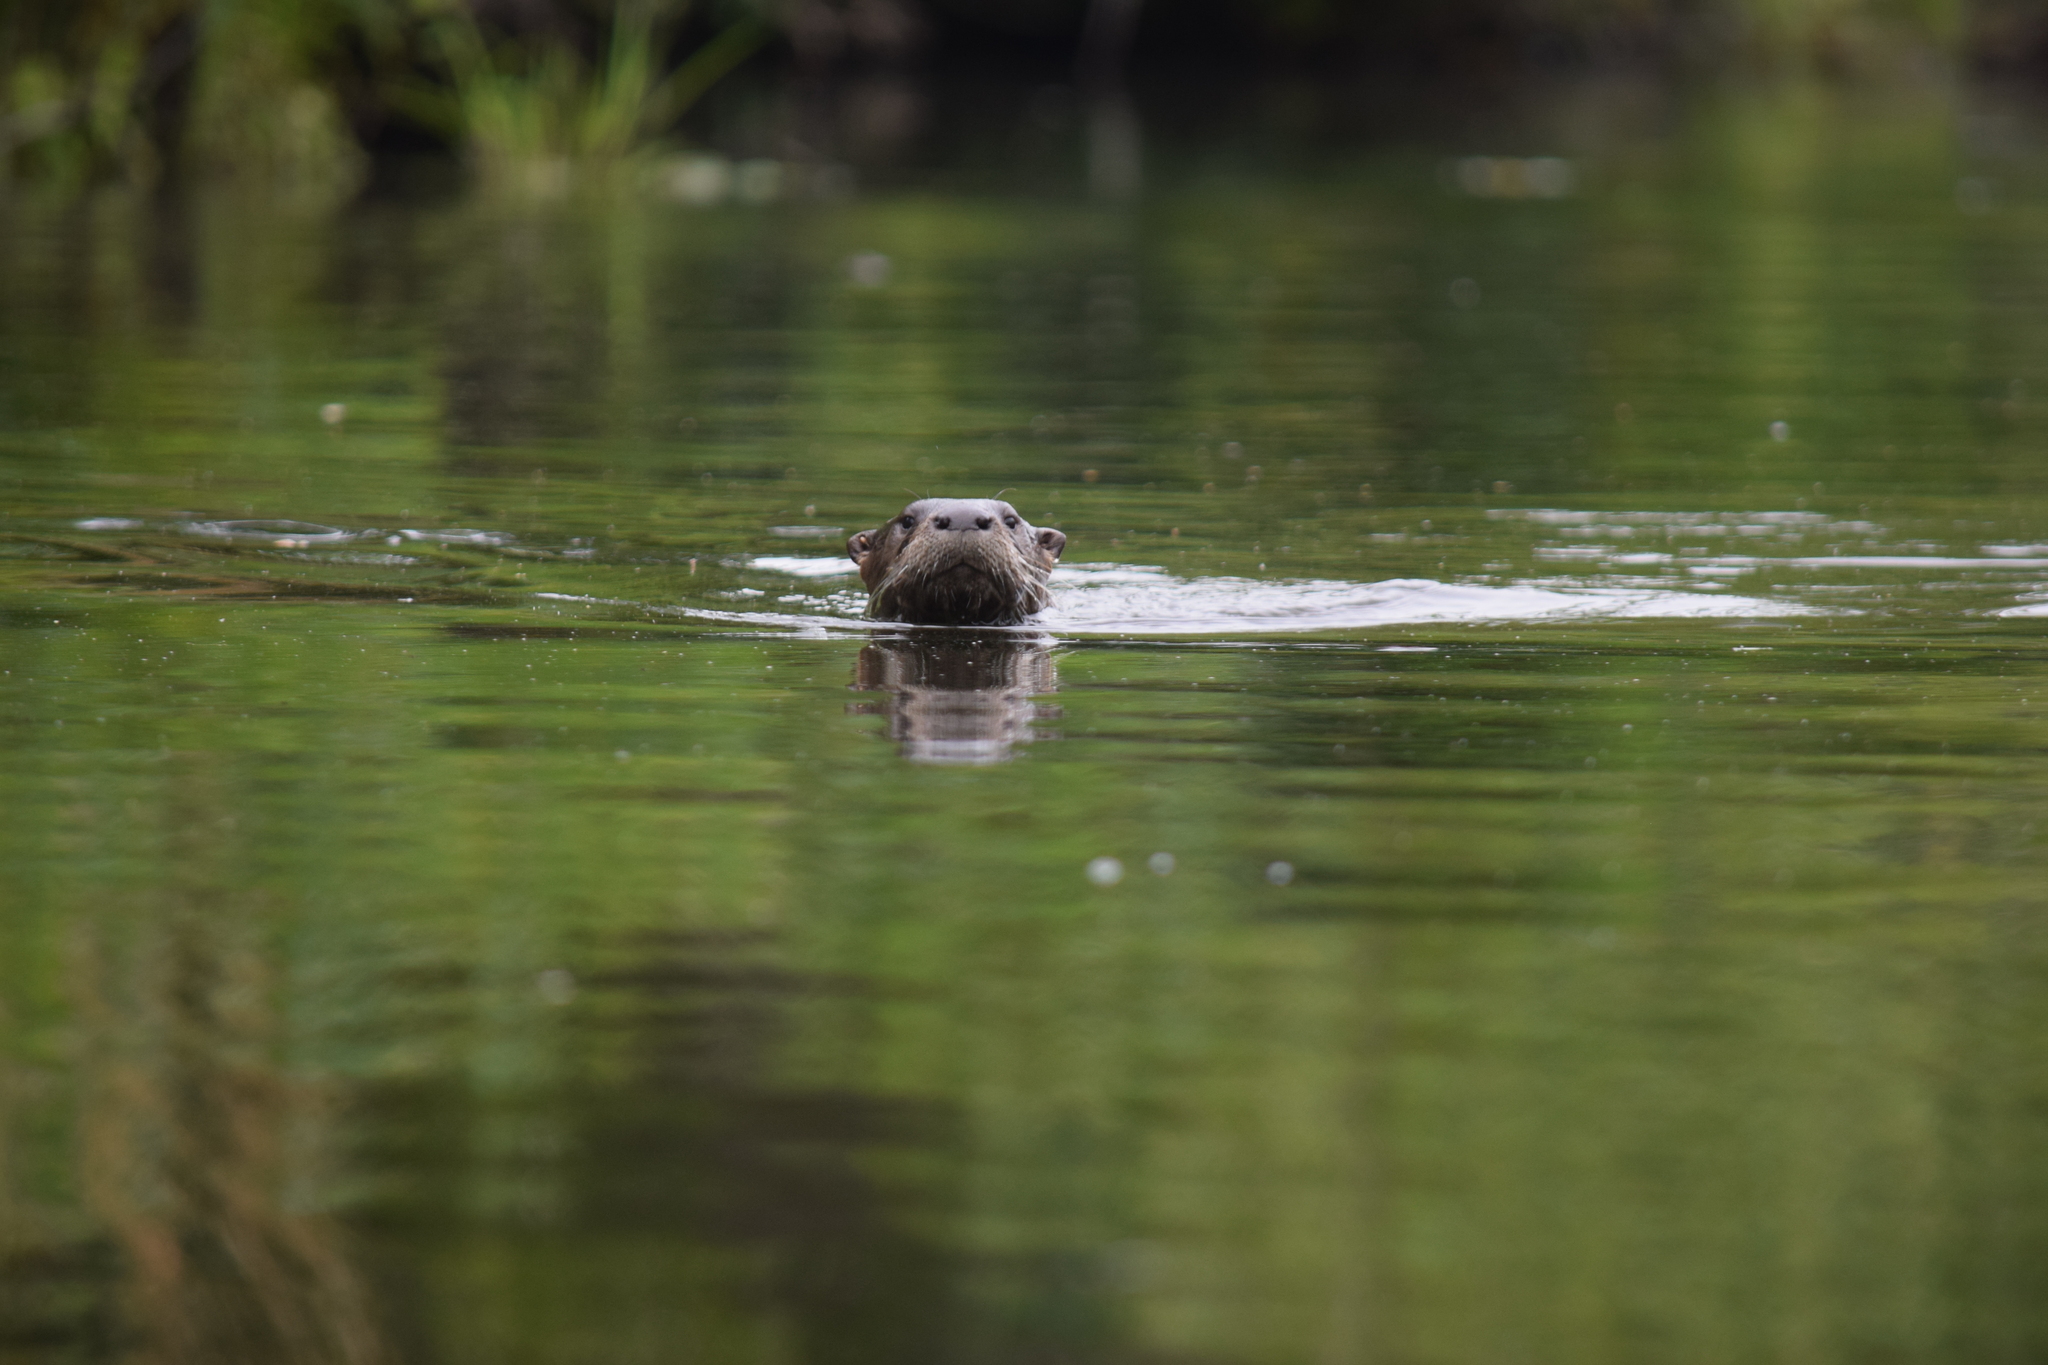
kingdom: Animalia
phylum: Chordata
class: Mammalia
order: Carnivora
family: Mustelidae
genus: Lontra
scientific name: Lontra canadensis
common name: North american river otter
